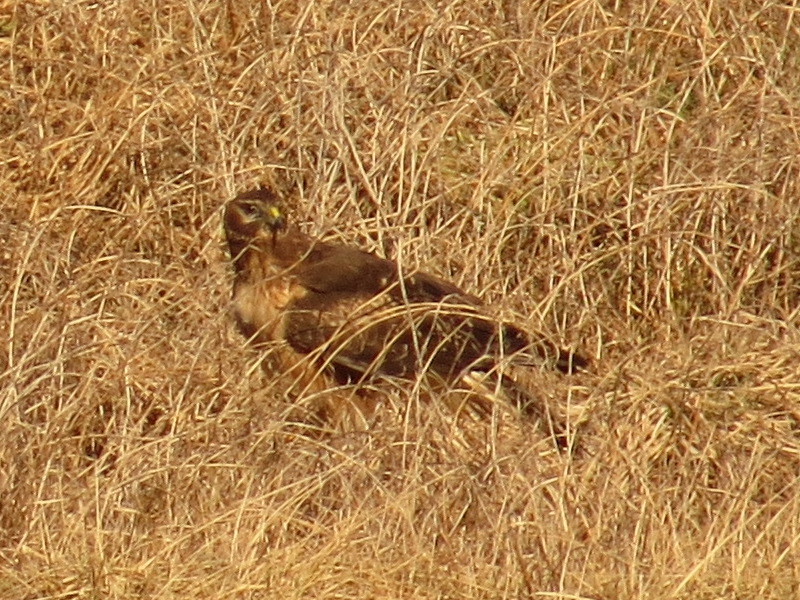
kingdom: Animalia
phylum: Chordata
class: Aves
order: Accipitriformes
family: Accipitridae
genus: Circus
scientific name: Circus cyaneus
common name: Hen harrier
